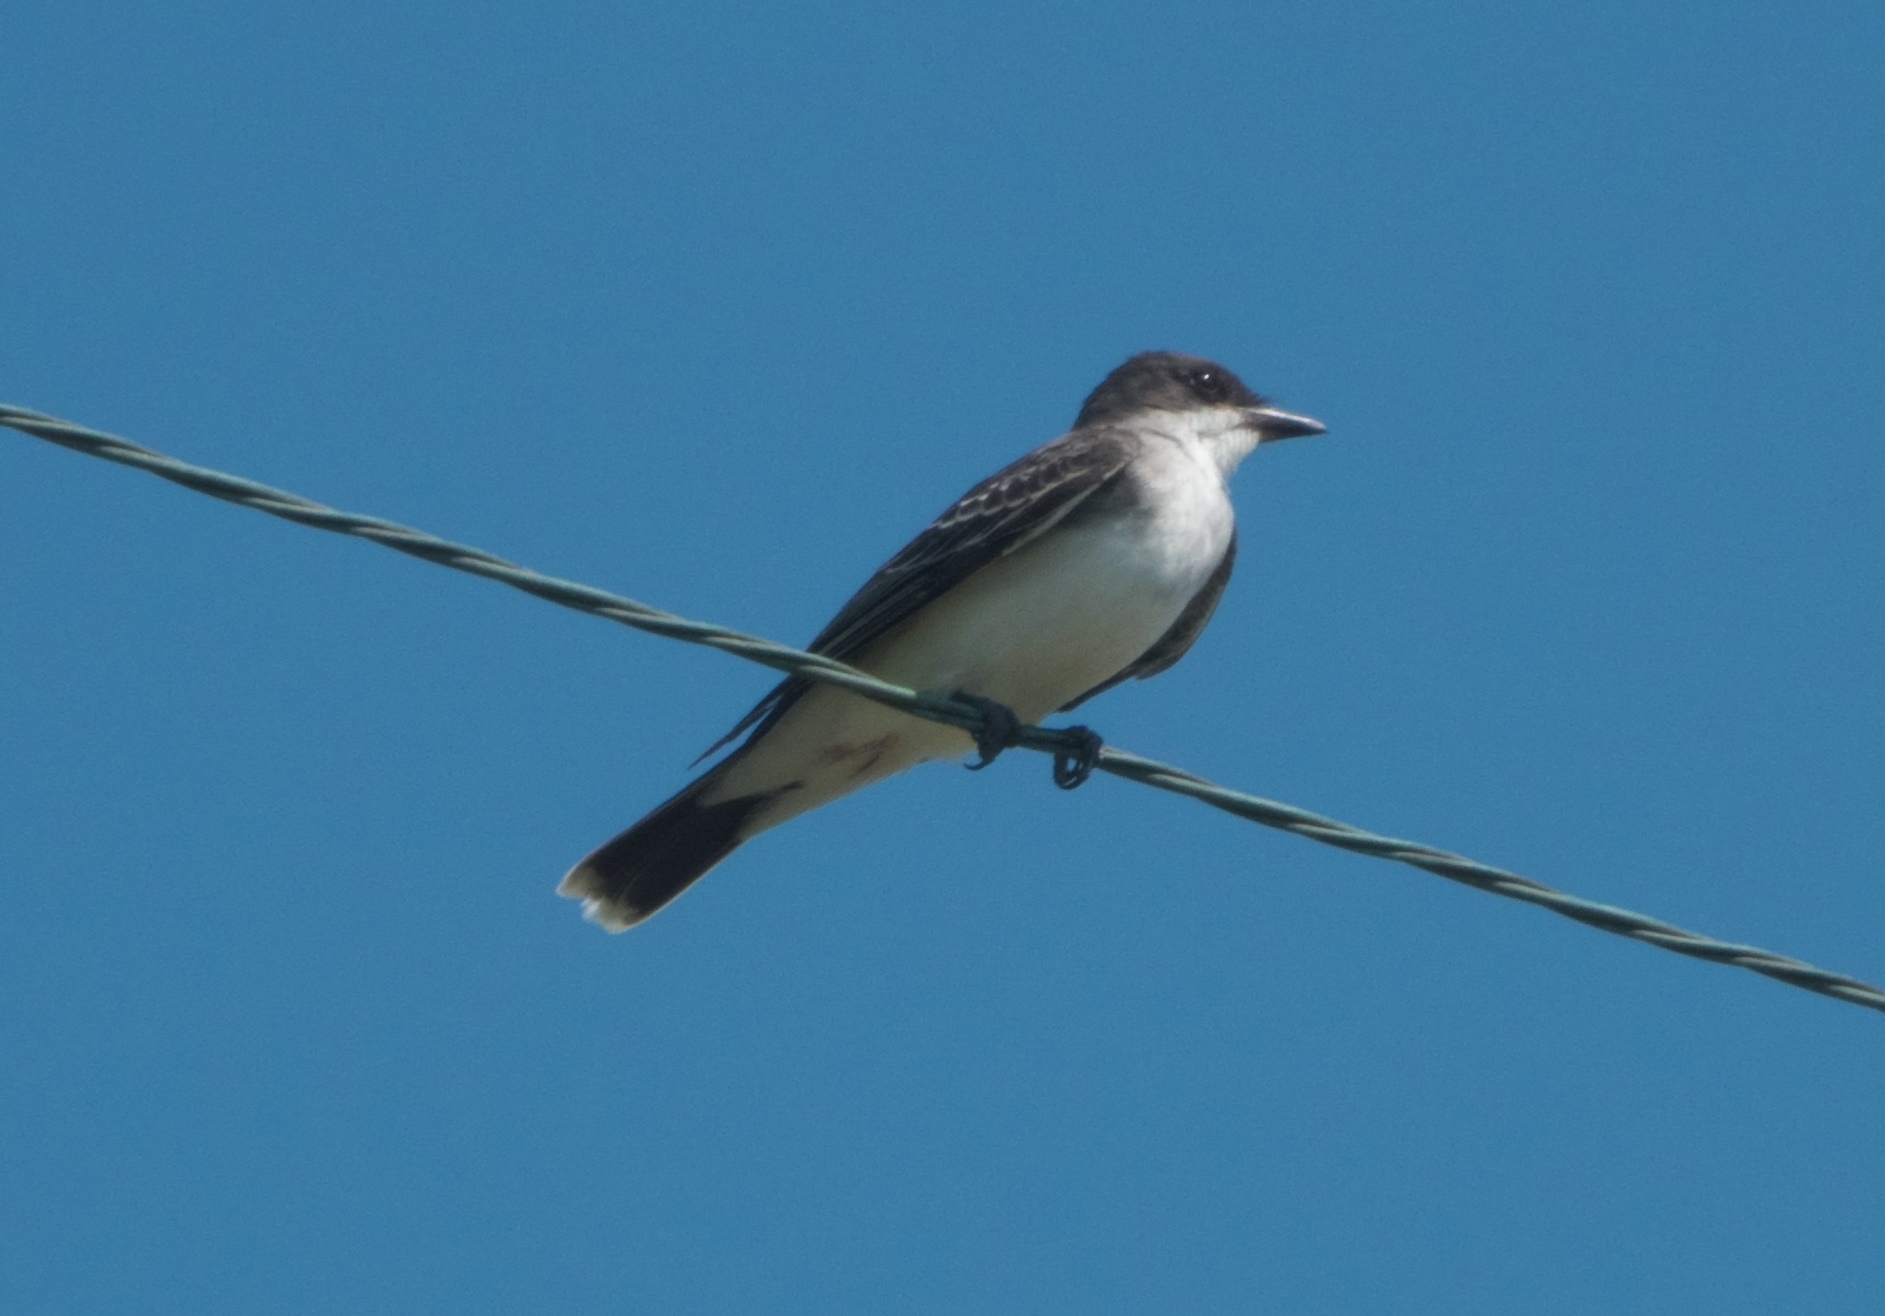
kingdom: Animalia
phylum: Chordata
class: Aves
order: Passeriformes
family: Tyrannidae
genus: Tyrannus
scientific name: Tyrannus tyrannus
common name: Eastern kingbird
